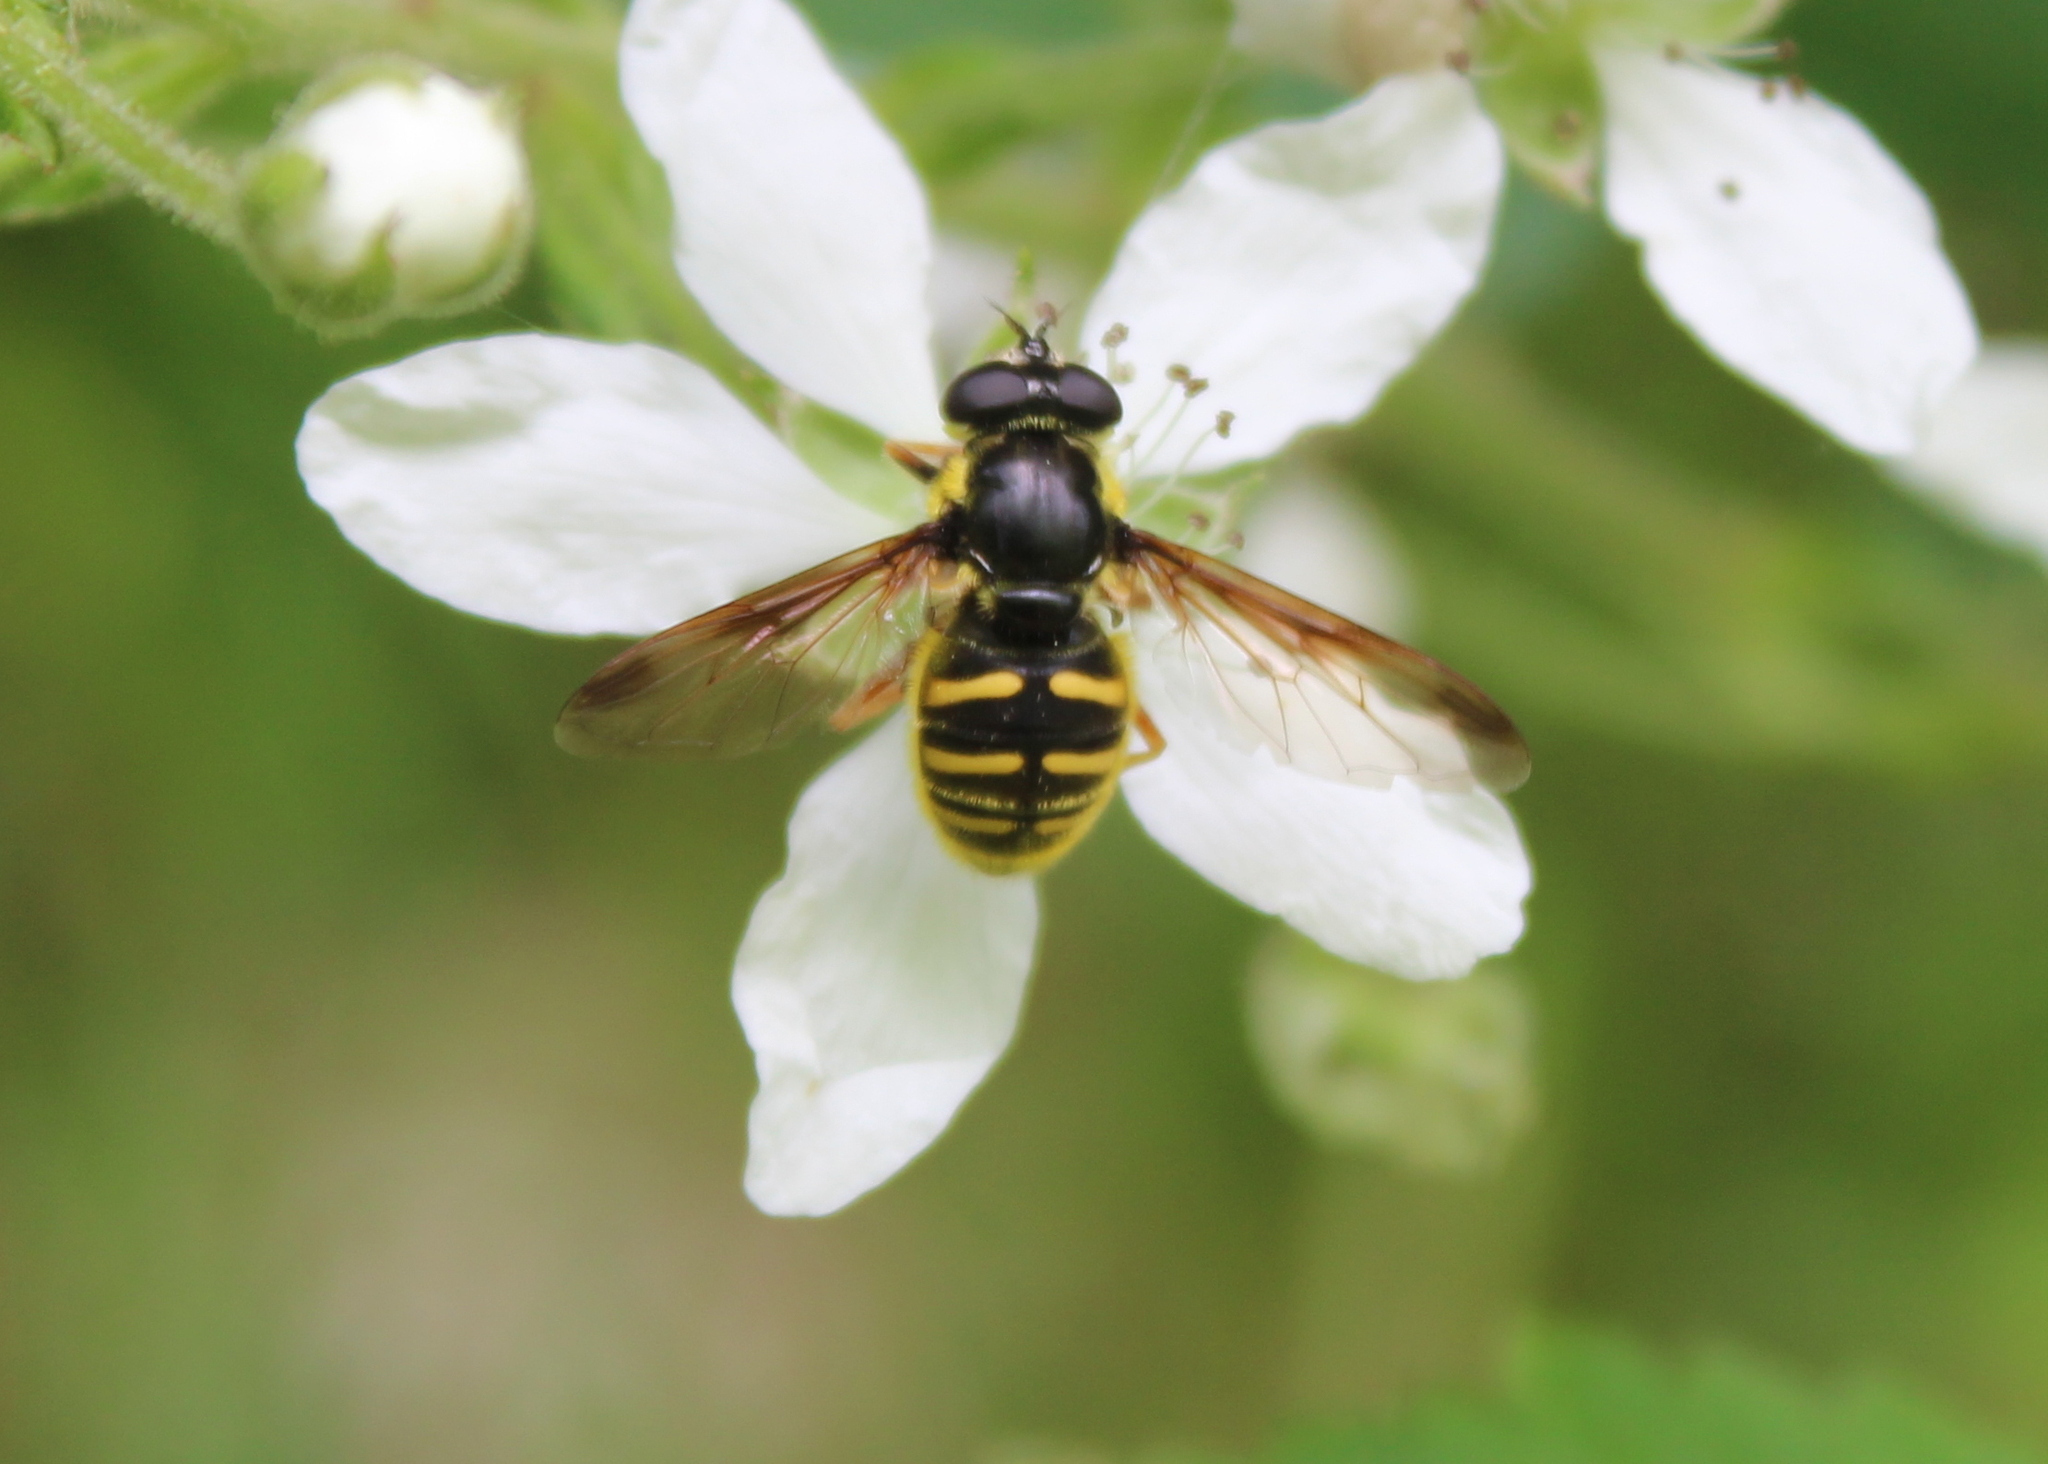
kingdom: Animalia
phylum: Arthropoda
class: Insecta
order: Diptera
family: Syrphidae
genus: Sericomyia
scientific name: Sericomyia chrysotoxoides
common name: Oblique-banded pond fly
